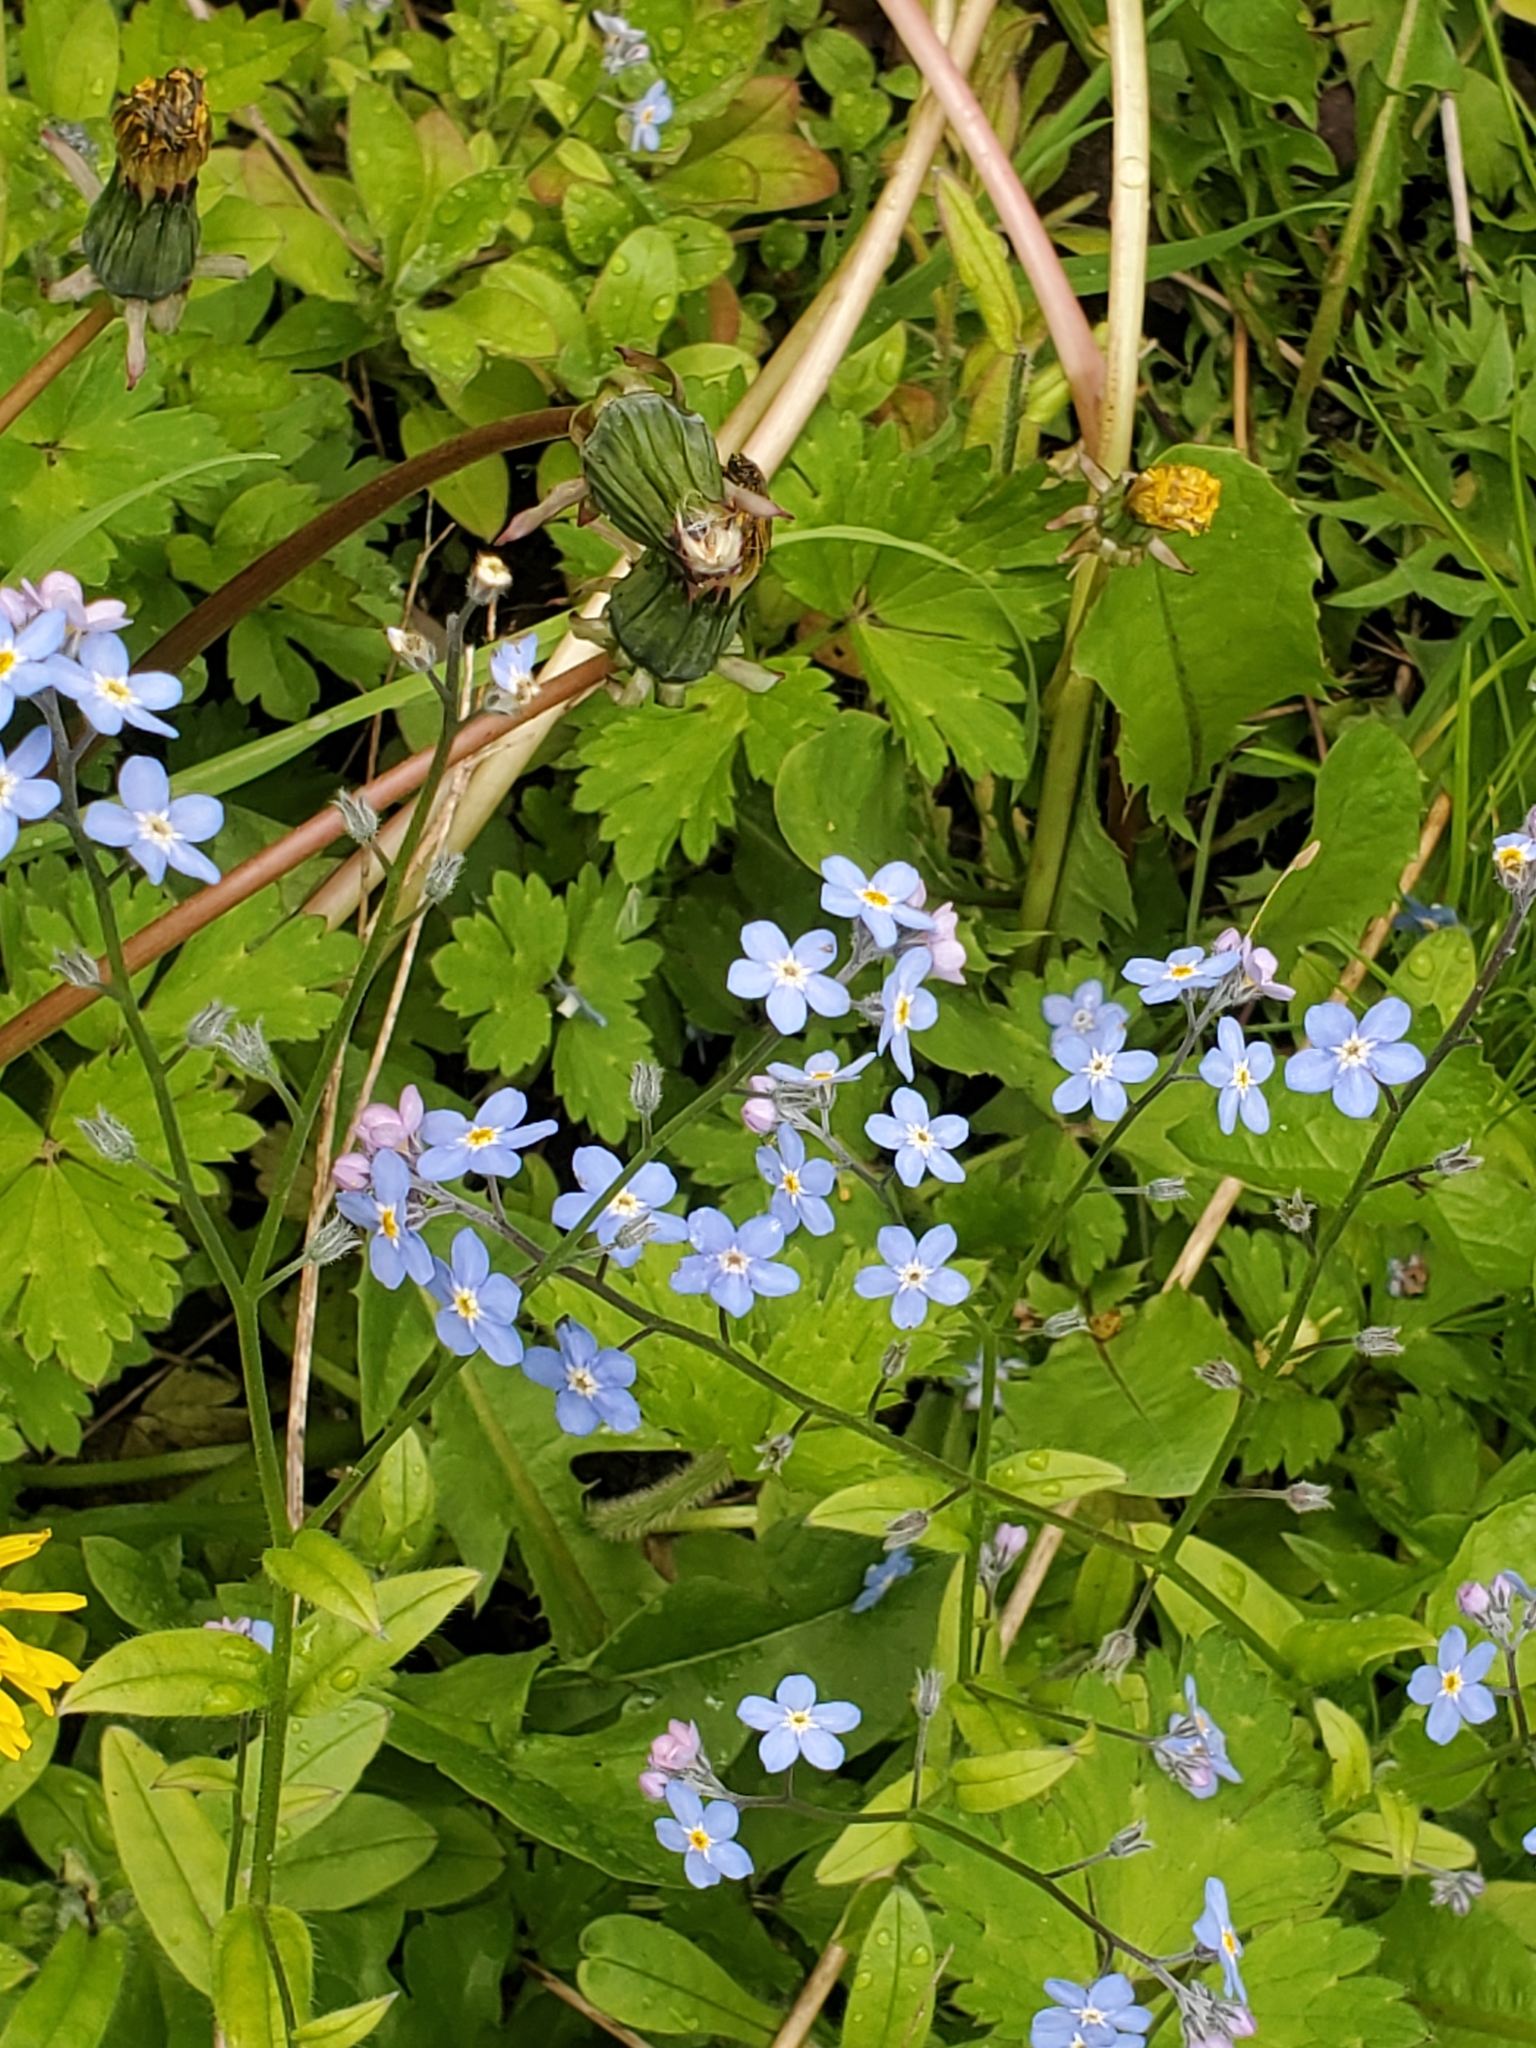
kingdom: Plantae
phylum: Tracheophyta
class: Magnoliopsida
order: Boraginales
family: Boraginaceae
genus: Myosotis
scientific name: Myosotis sylvatica
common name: Wood forget-me-not
